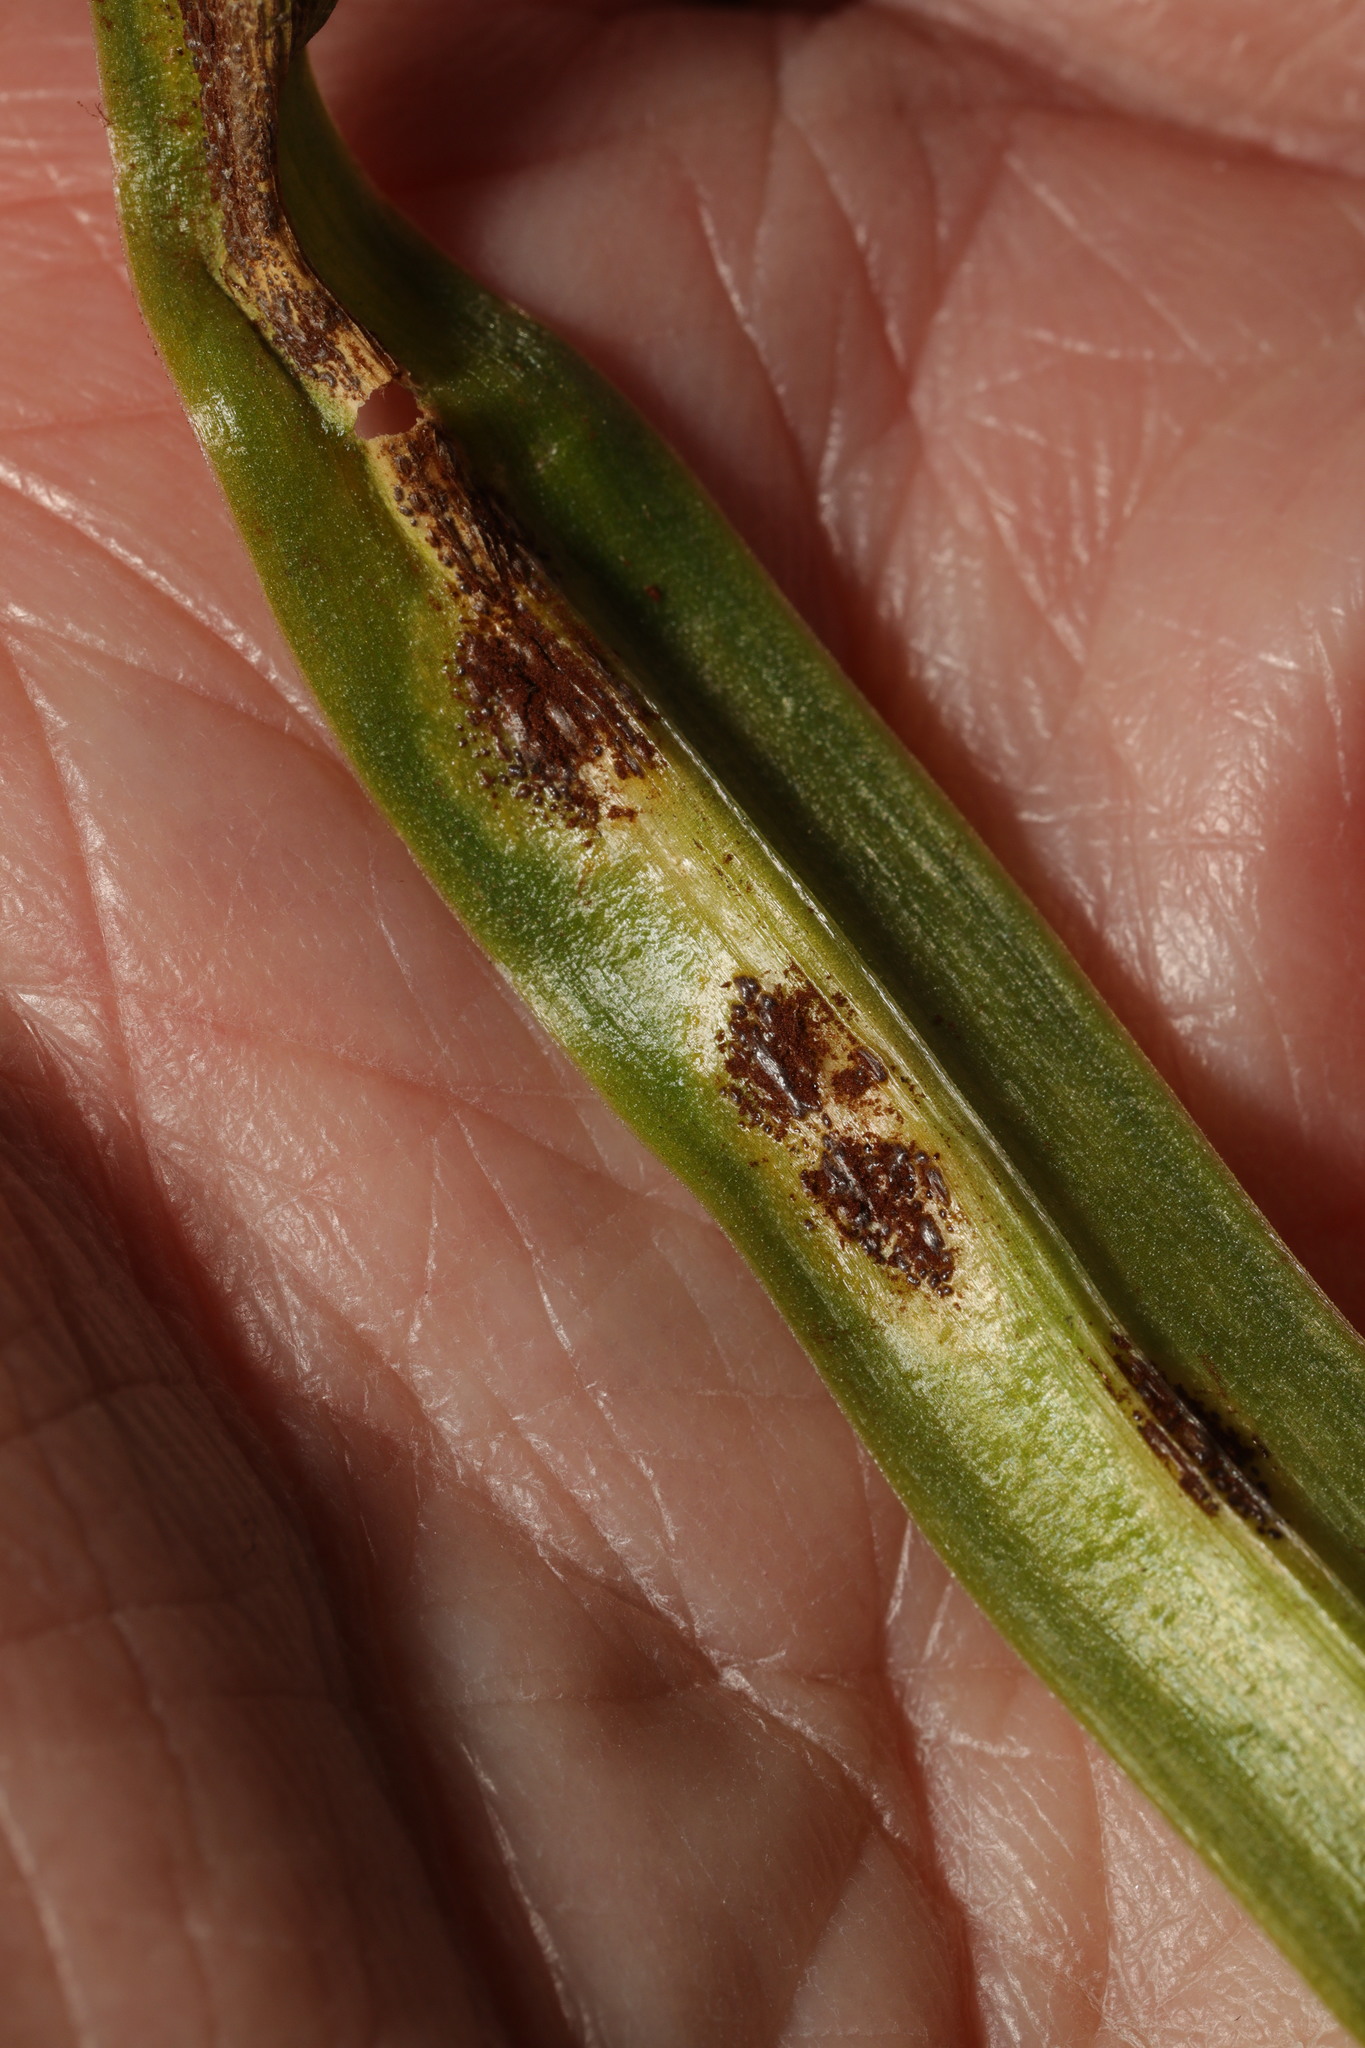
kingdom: Fungi
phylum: Basidiomycota
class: Pucciniomycetes
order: Pucciniales
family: Pucciniaceae
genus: Uromyces
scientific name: Uromyces hyacinthi
